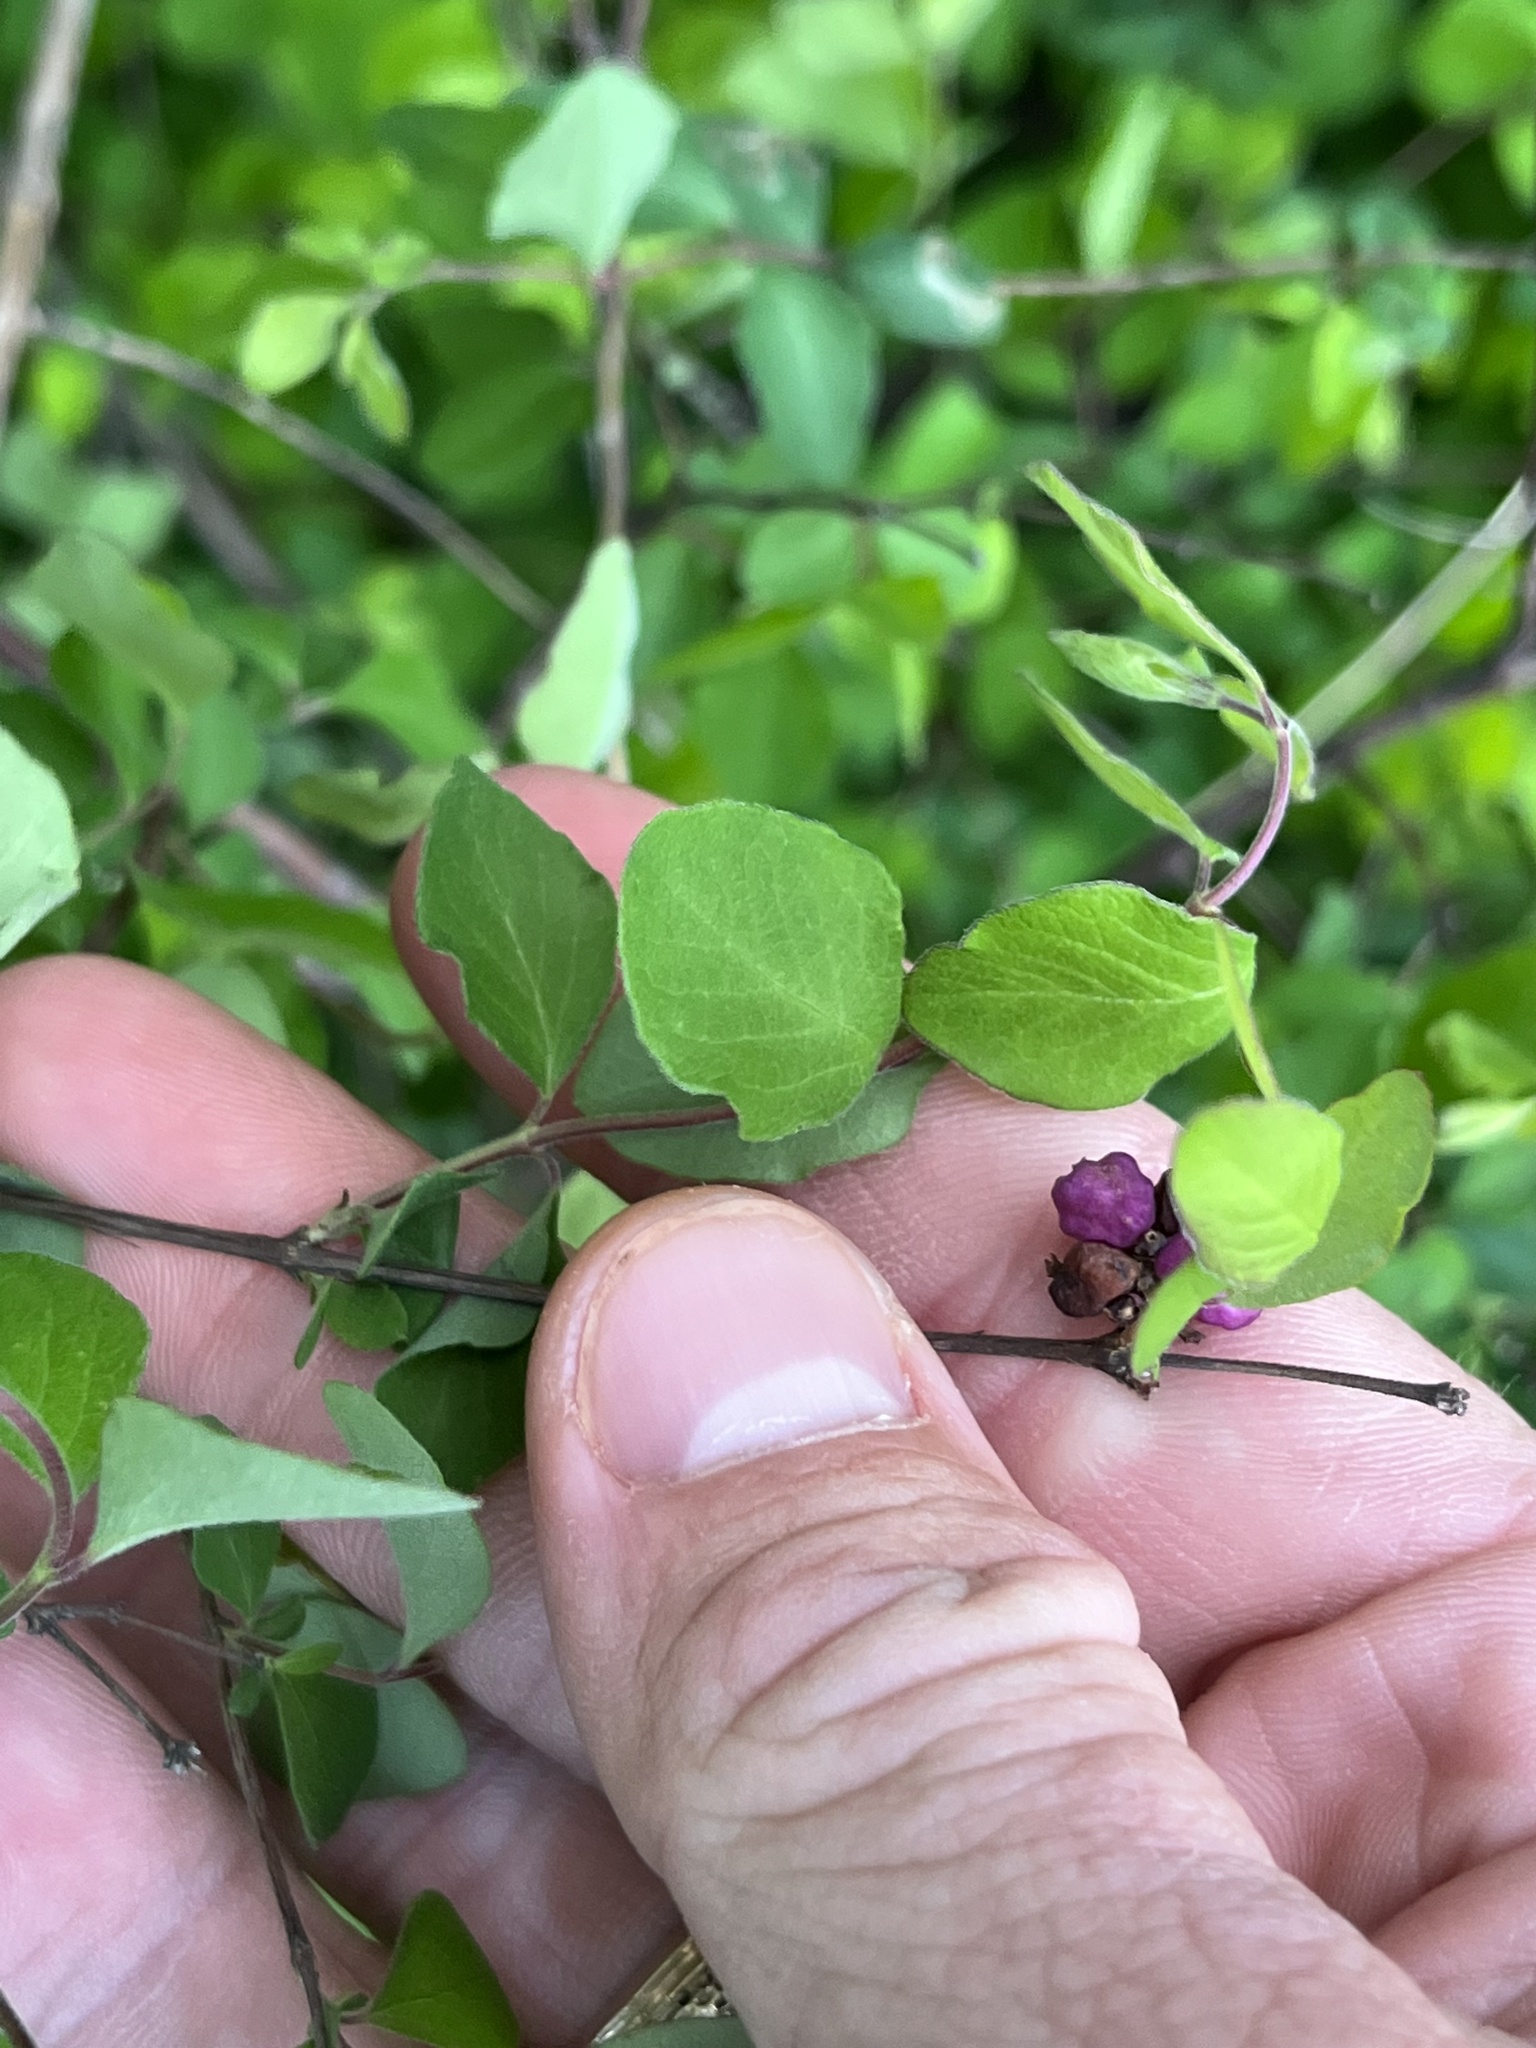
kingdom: Plantae
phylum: Tracheophyta
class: Magnoliopsida
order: Dipsacales
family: Caprifoliaceae
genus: Symphoricarpos
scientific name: Symphoricarpos orbiculatus
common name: Coralberry
